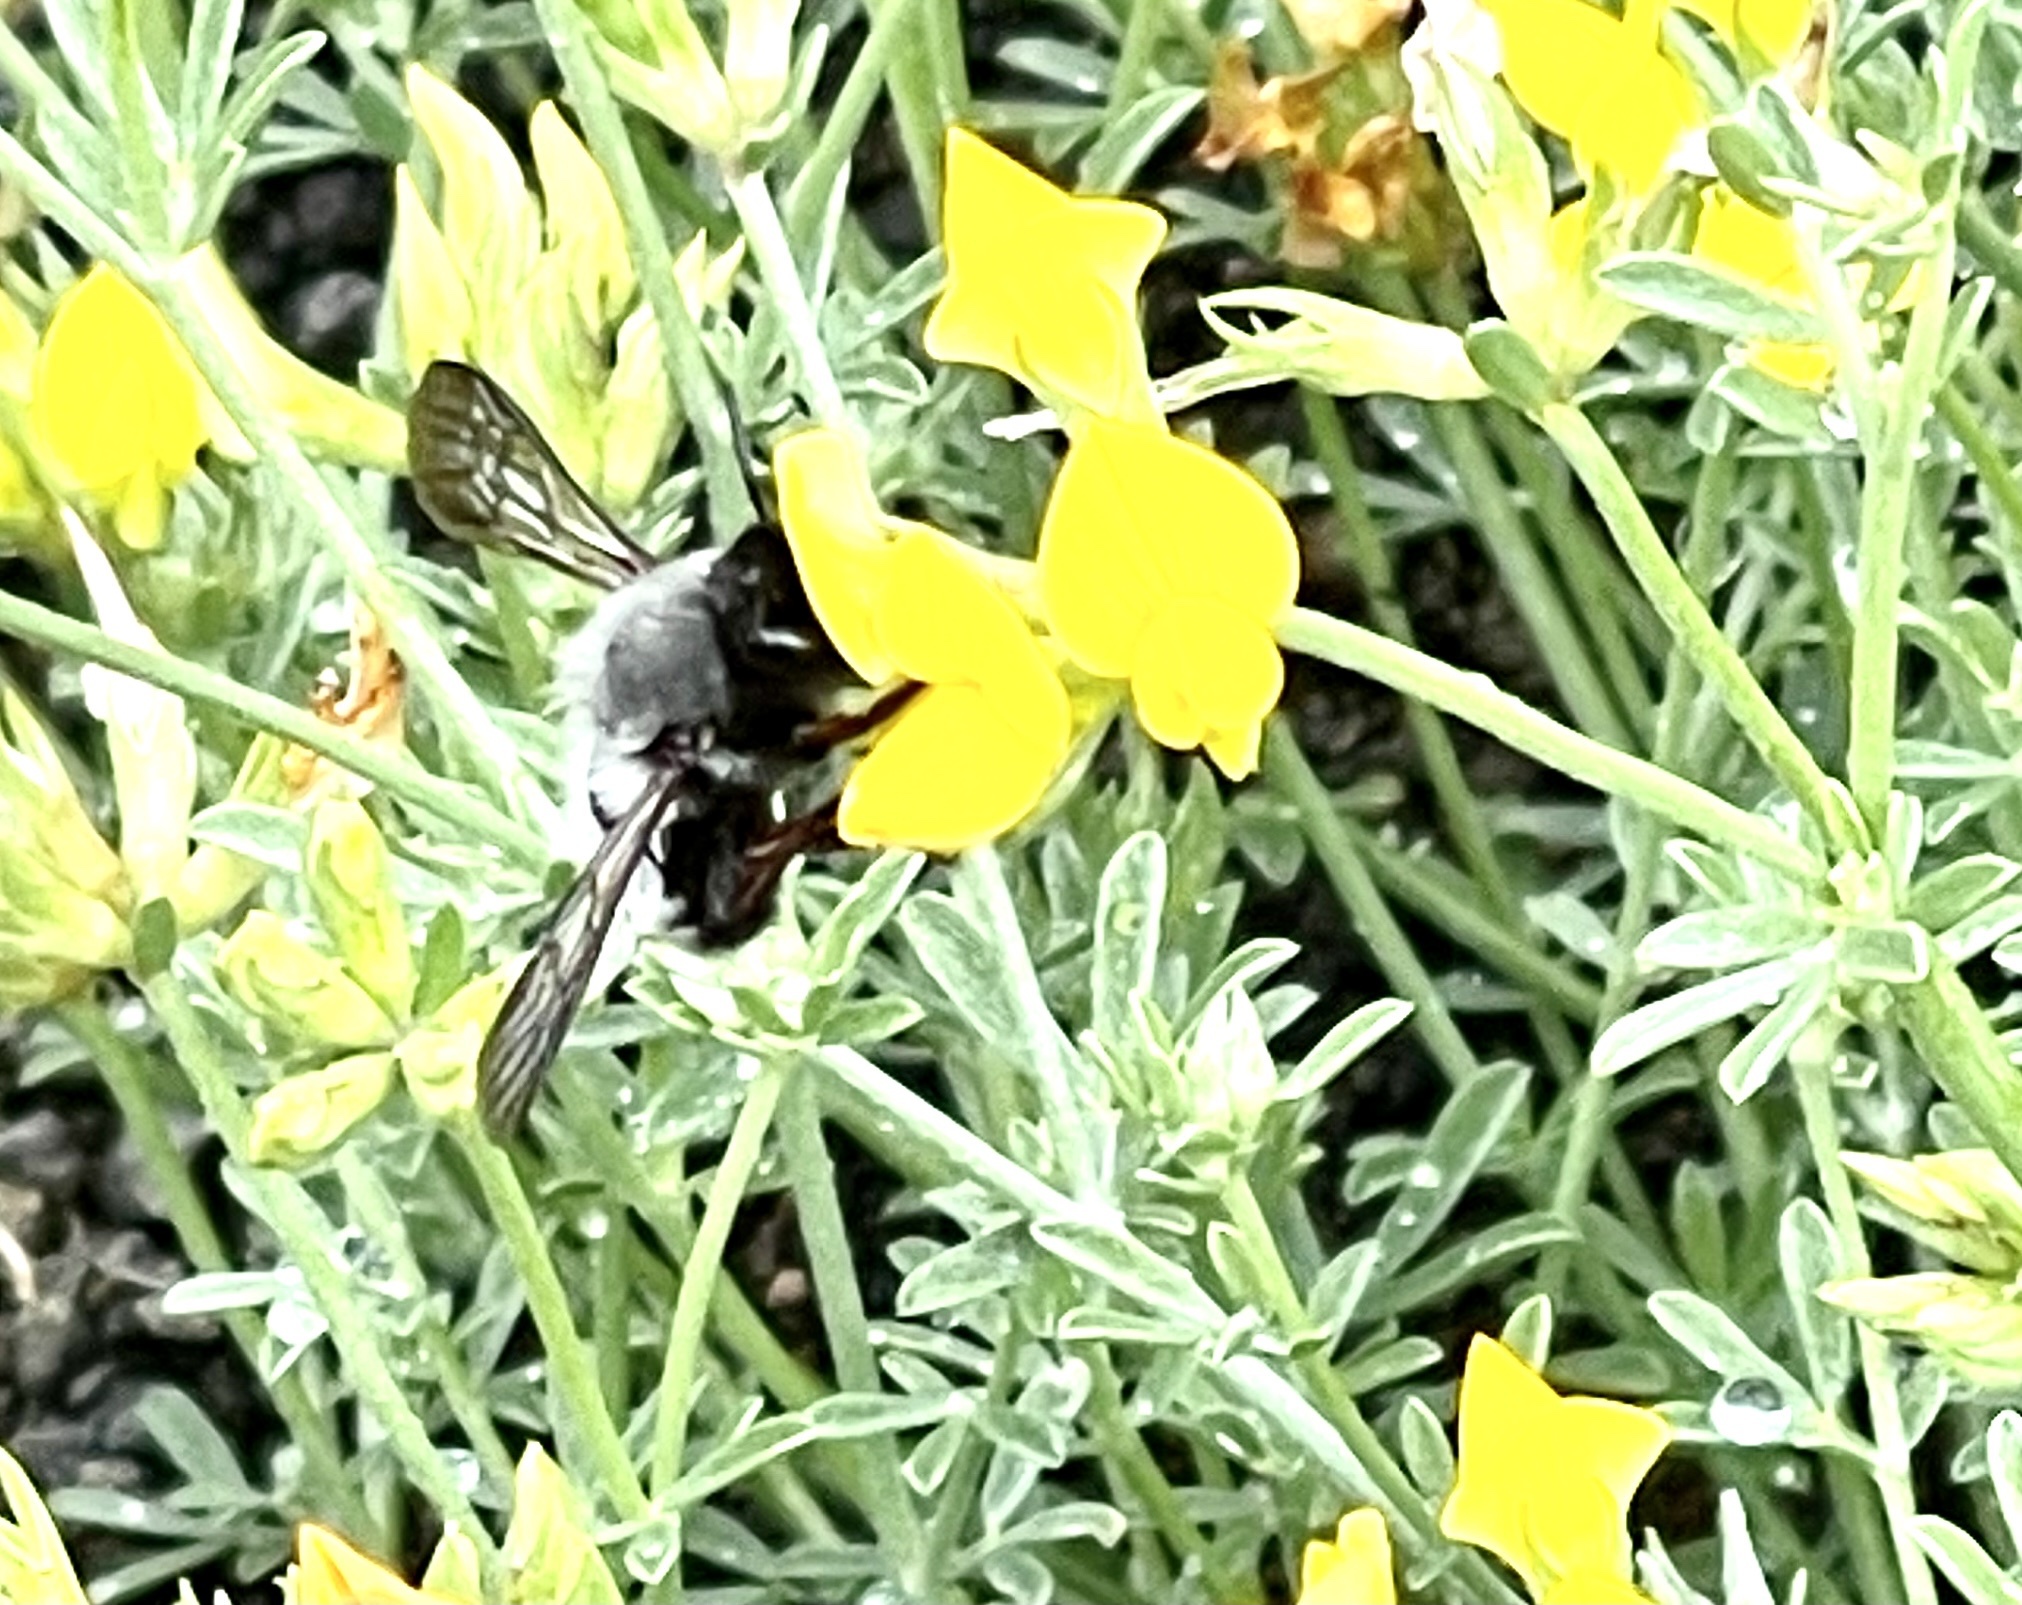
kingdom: Animalia
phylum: Arthropoda
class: Insecta
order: Hymenoptera
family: Megachilidae
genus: Megachile
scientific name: Megachile canescens
